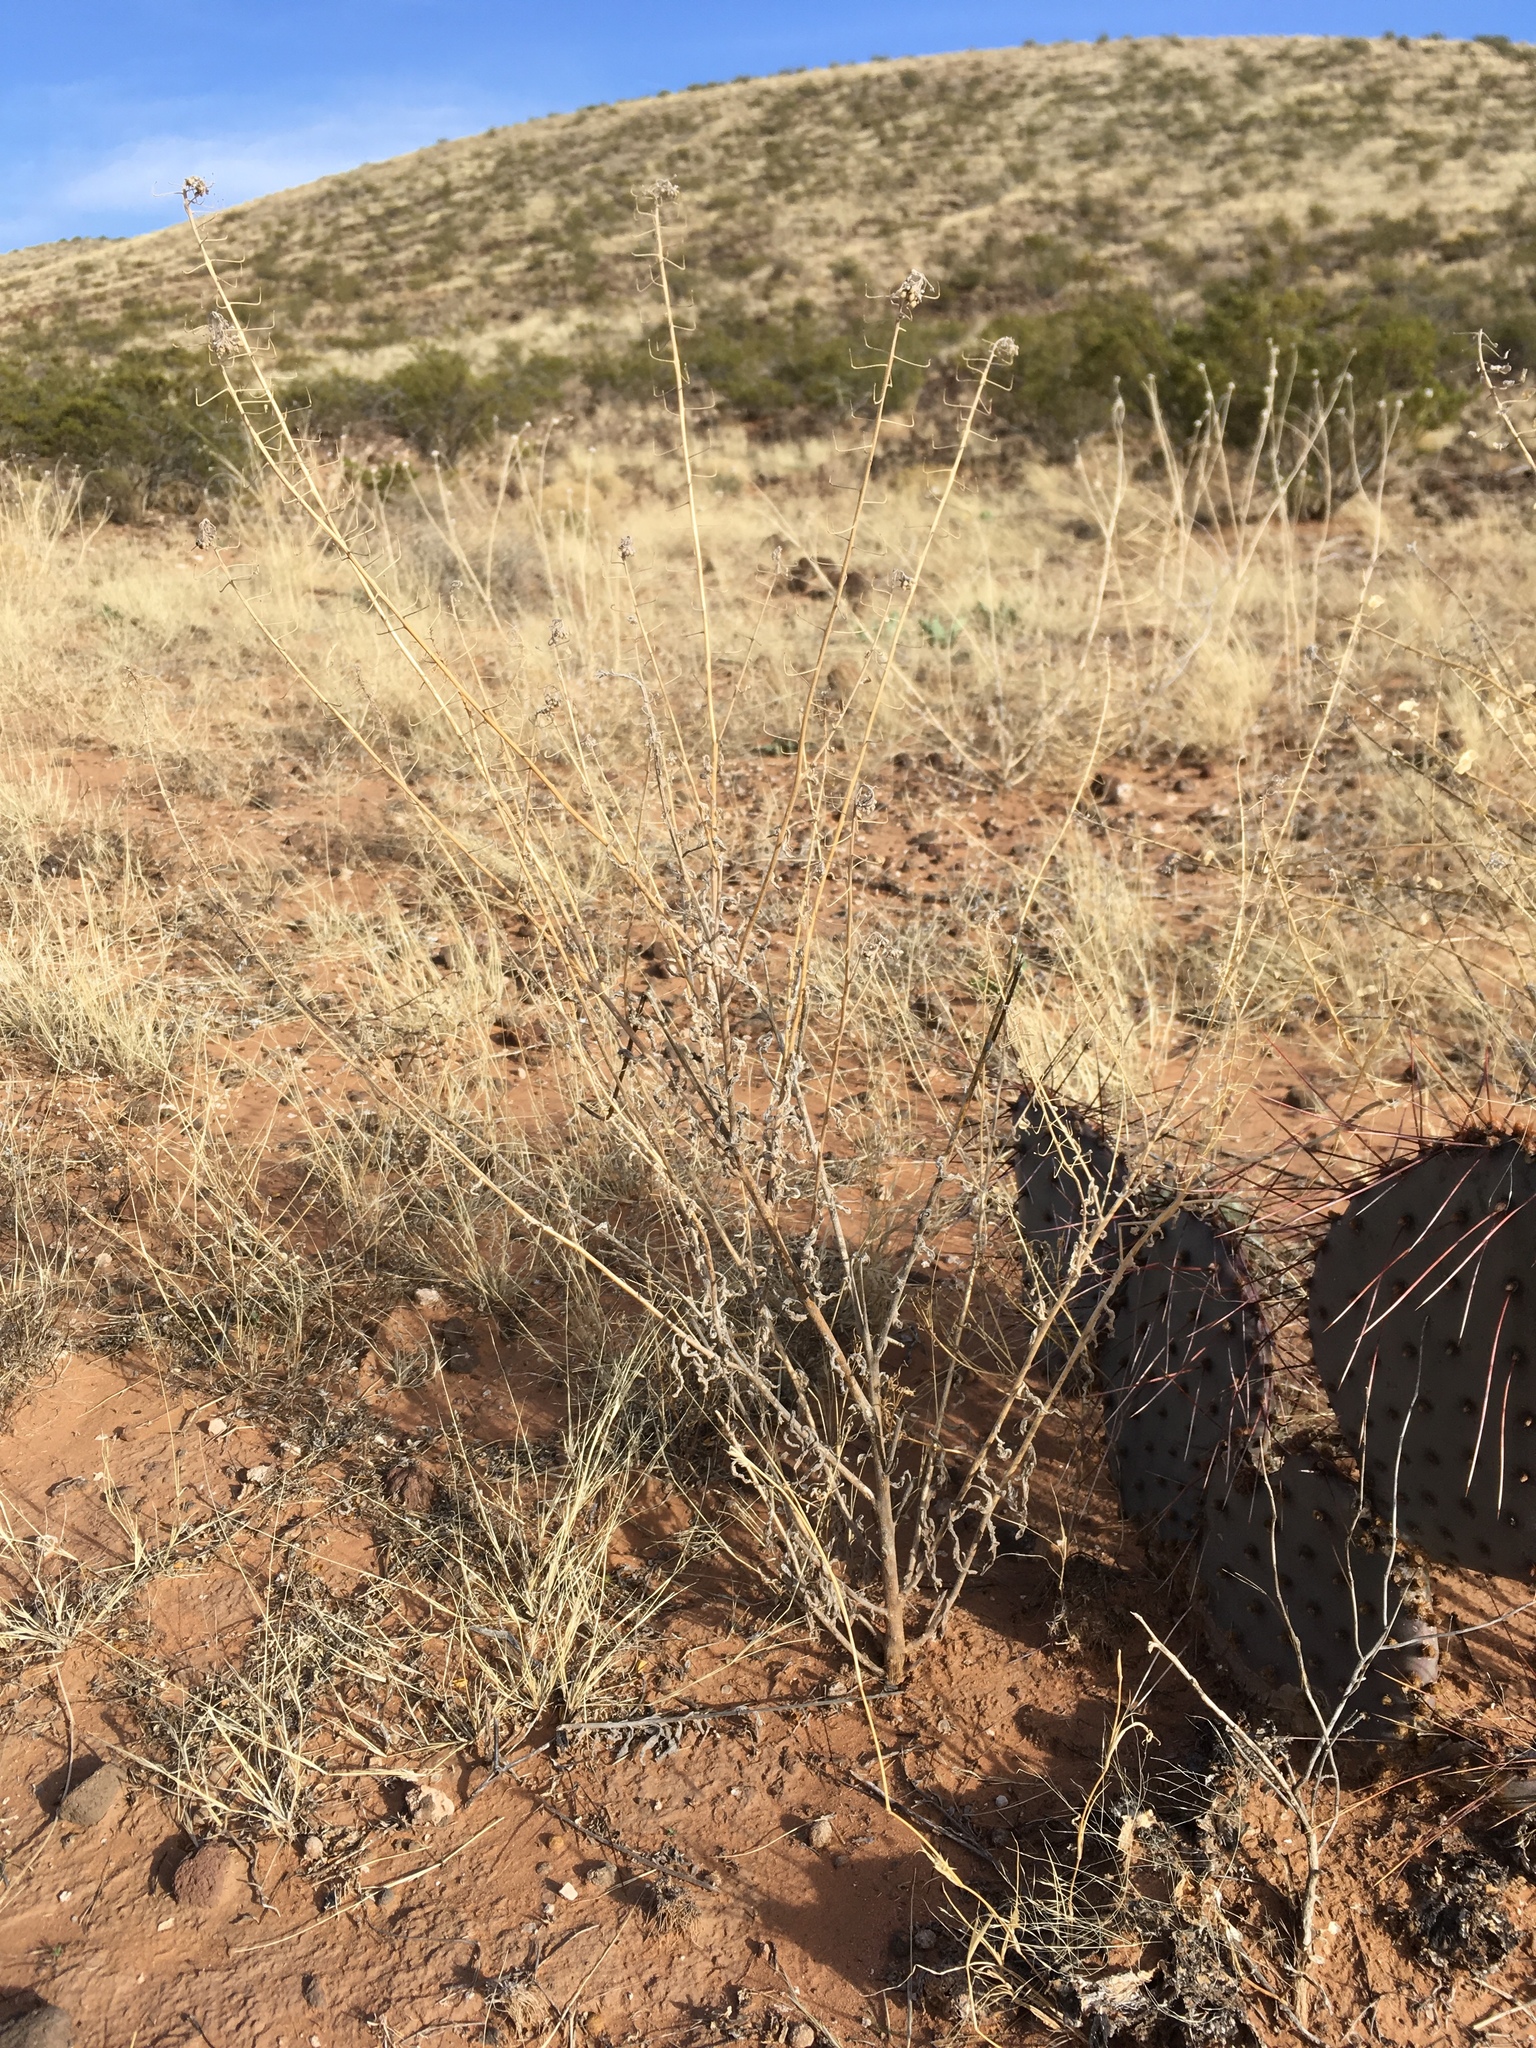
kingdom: Plantae
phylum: Tracheophyta
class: Magnoliopsida
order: Brassicales
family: Brassicaceae
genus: Dimorphocarpa
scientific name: Dimorphocarpa wislizenii
